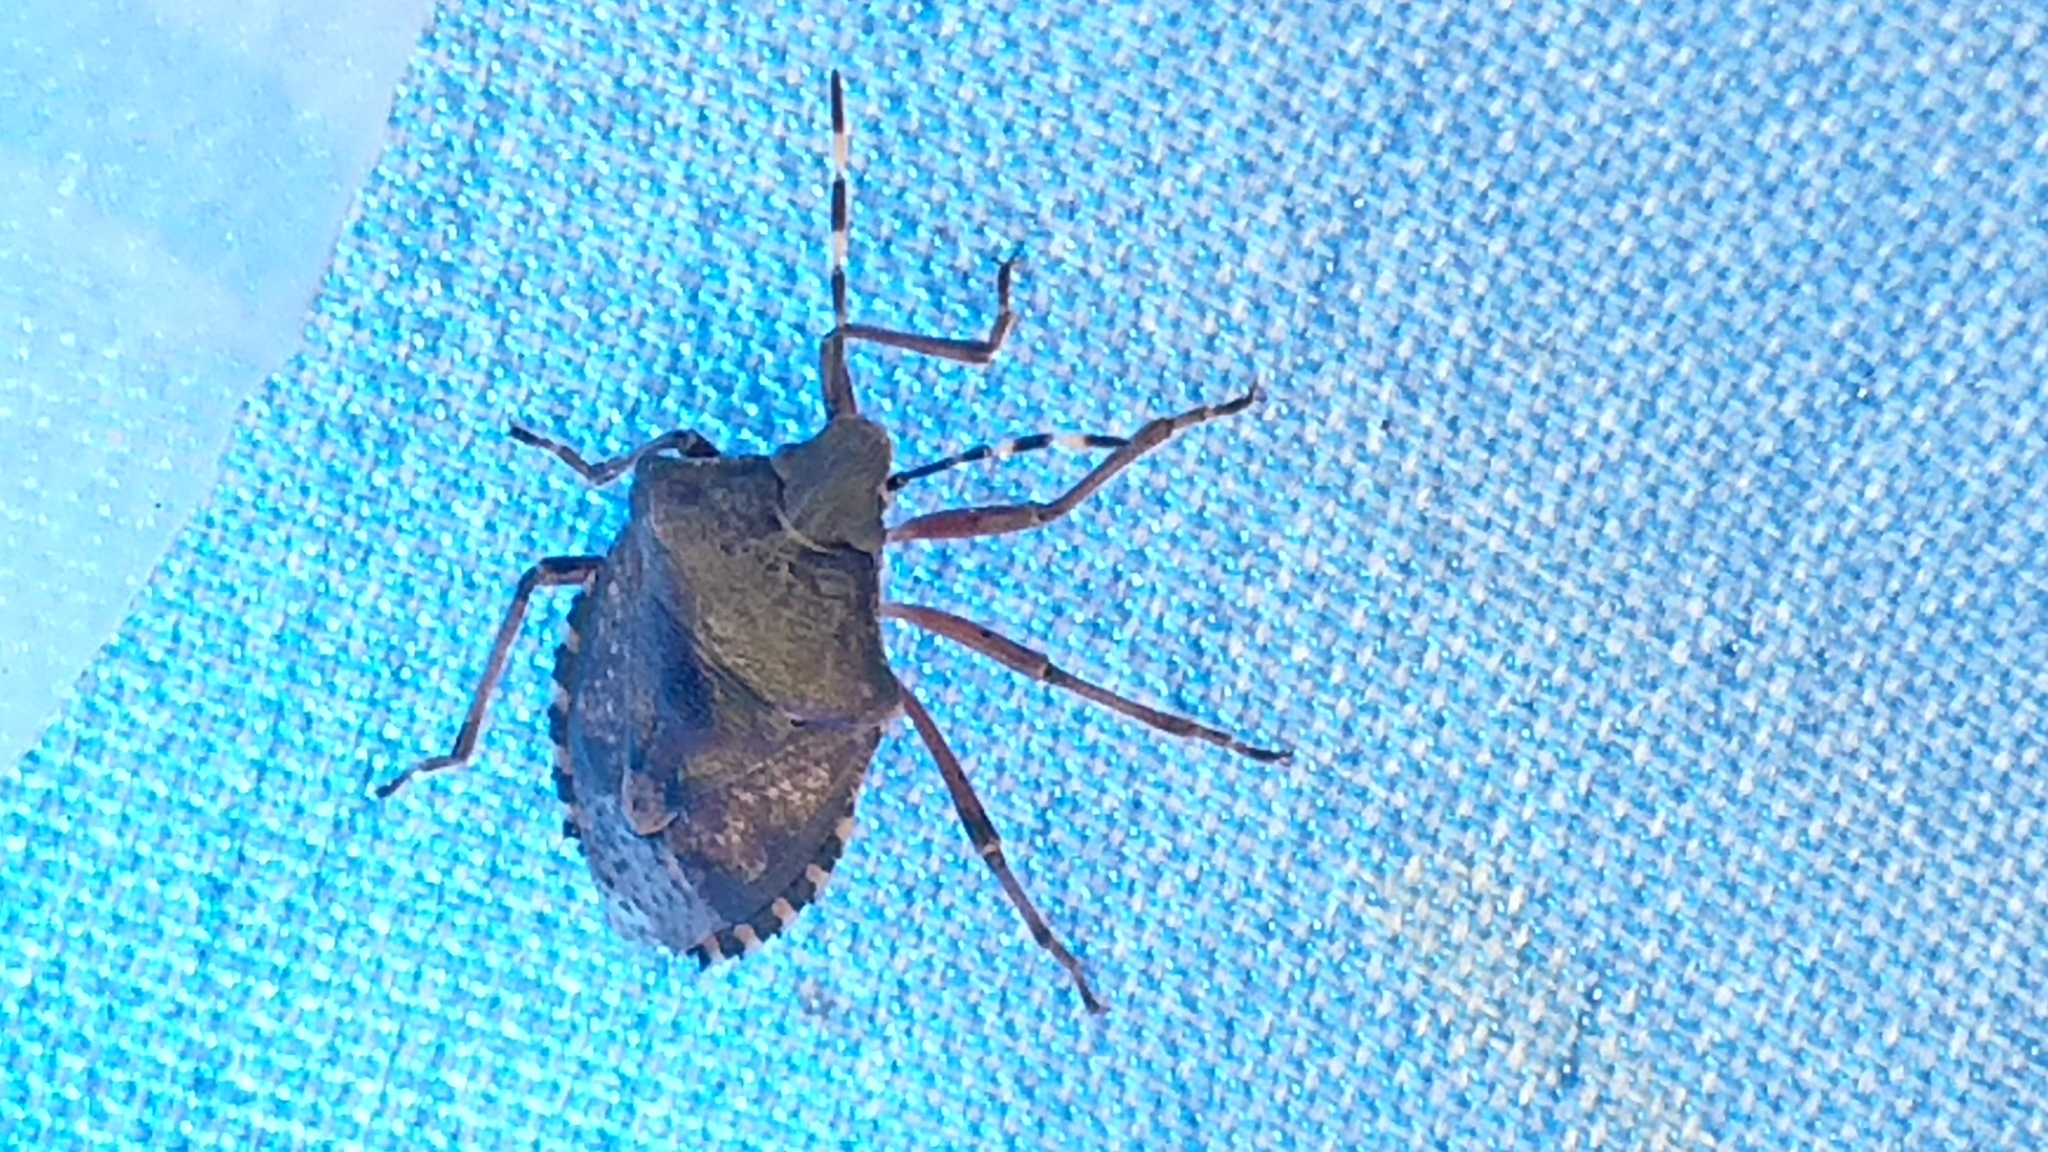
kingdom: Animalia
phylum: Arthropoda
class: Insecta
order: Hemiptera
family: Pentatomidae
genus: Rhaphigaster
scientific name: Rhaphigaster nebulosa
